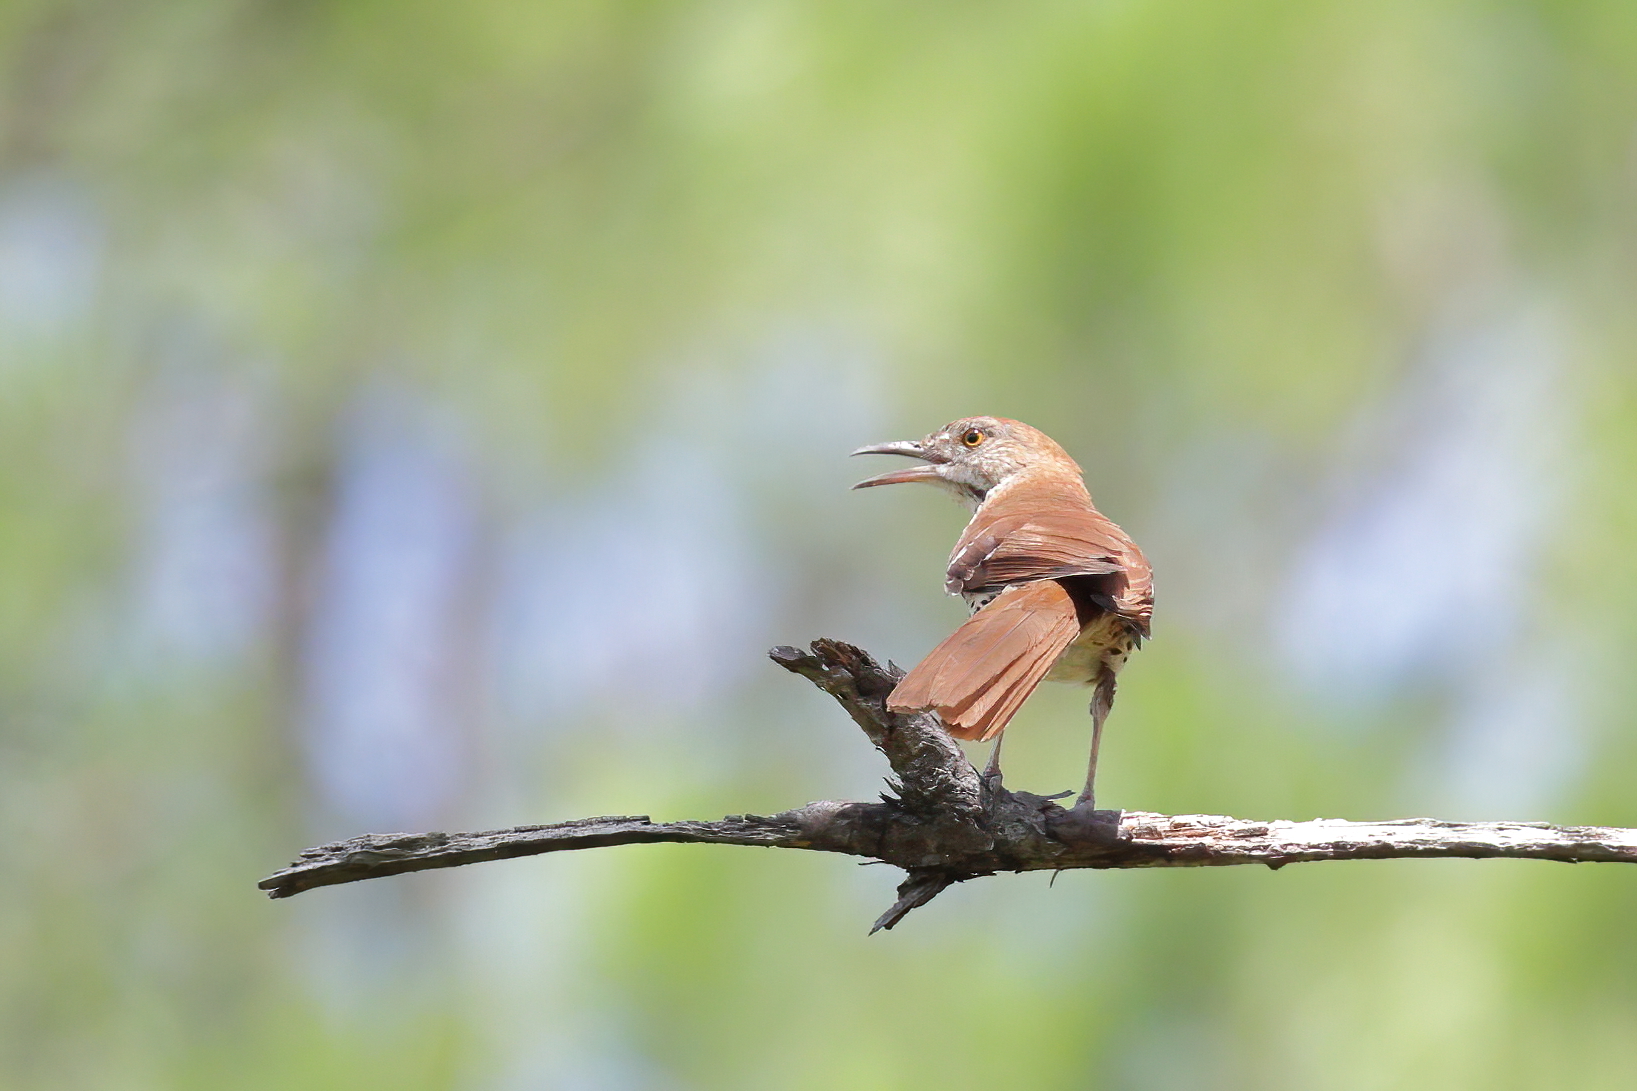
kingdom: Animalia
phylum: Chordata
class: Aves
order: Passeriformes
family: Mimidae
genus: Toxostoma
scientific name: Toxostoma rufum
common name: Brown thrasher
